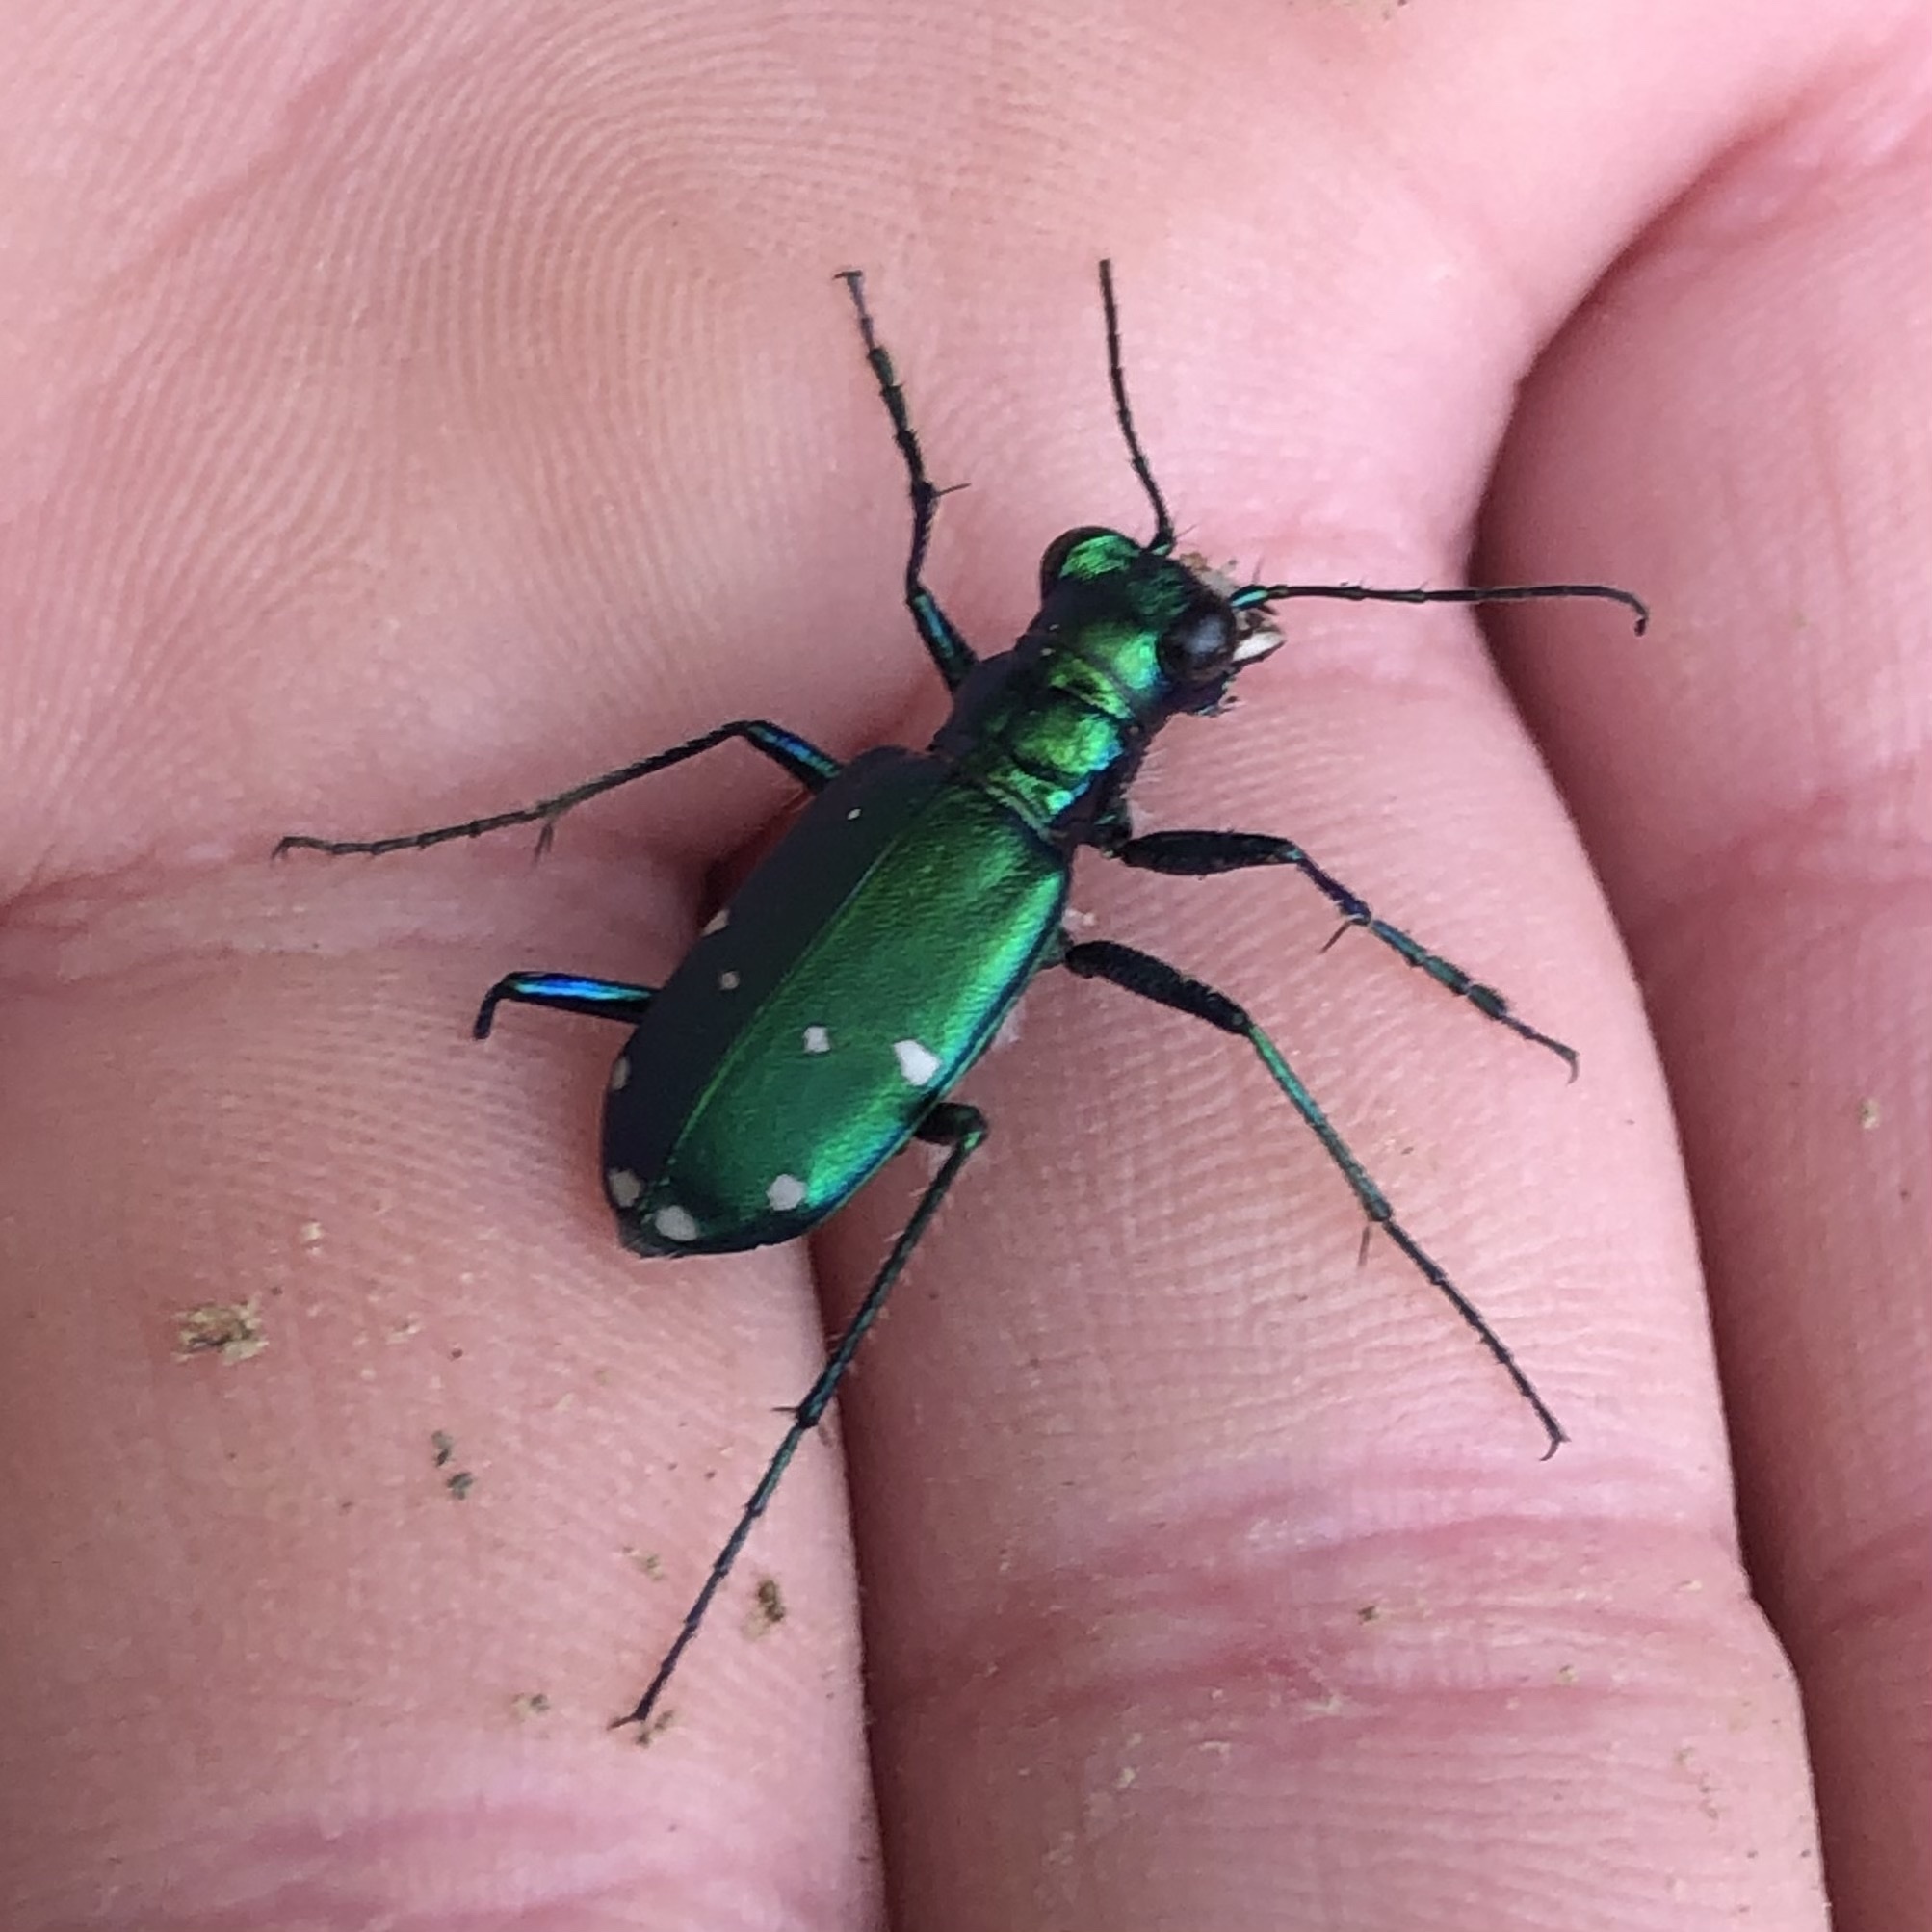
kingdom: Animalia
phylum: Arthropoda
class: Insecta
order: Coleoptera
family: Carabidae
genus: Cicindela
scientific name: Cicindela sexguttata
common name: Six-spotted tiger beetle
